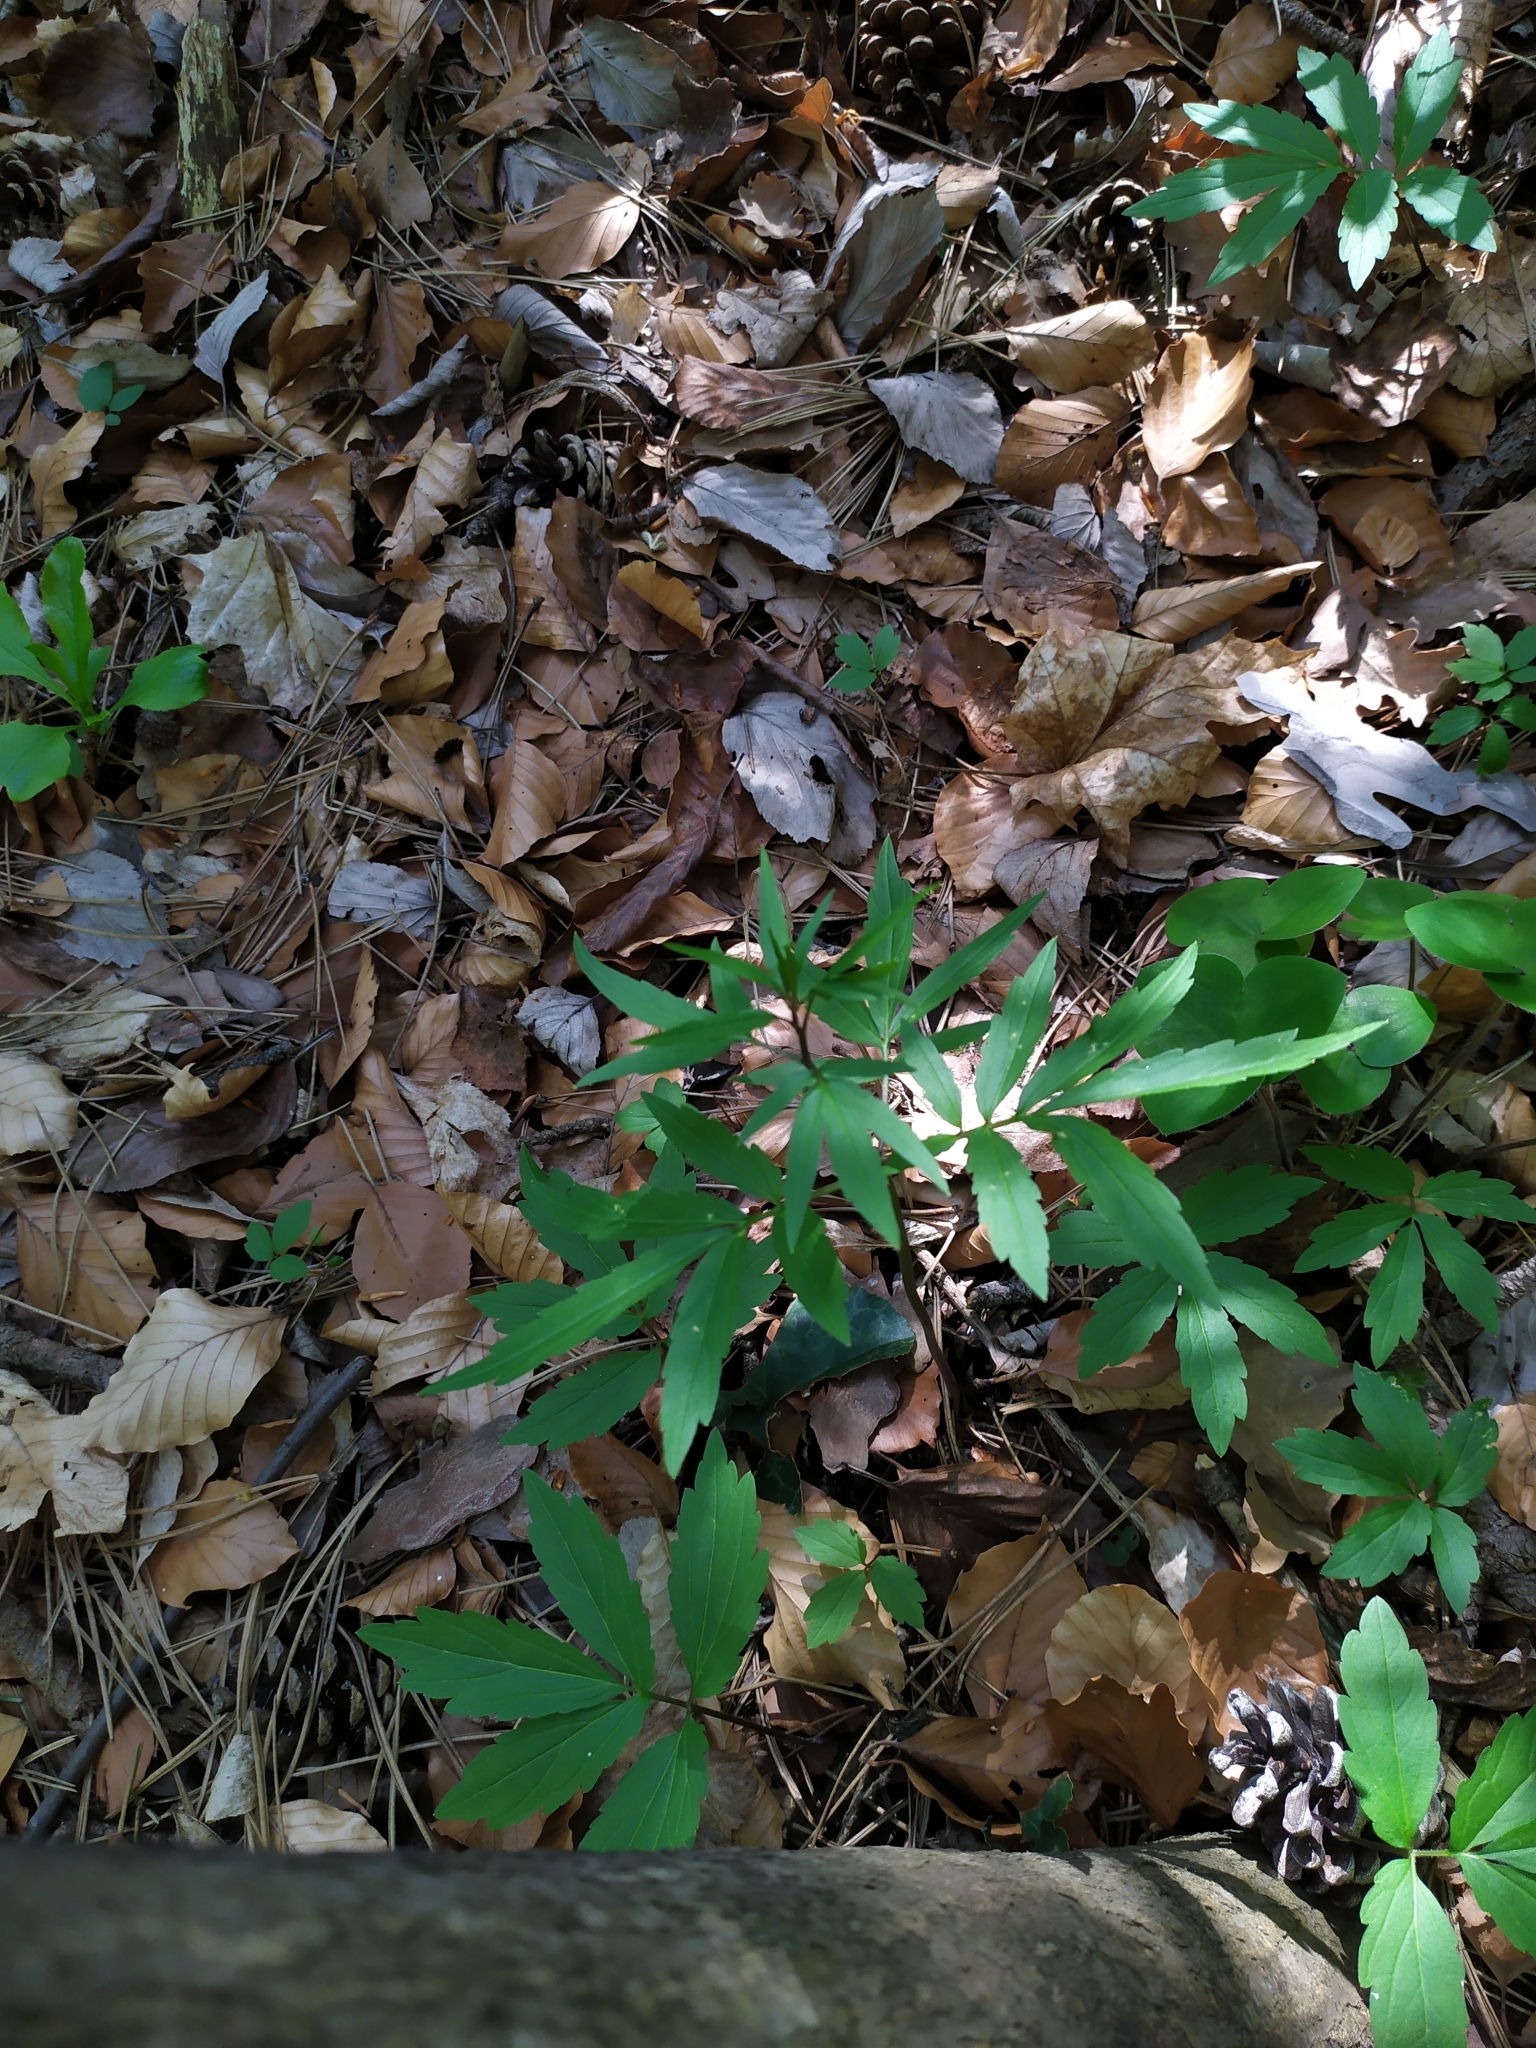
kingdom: Plantae
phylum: Tracheophyta
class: Magnoliopsida
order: Brassicales
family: Brassicaceae
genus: Cardamine
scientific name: Cardamine bulbifera
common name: Coralroot bittercress
